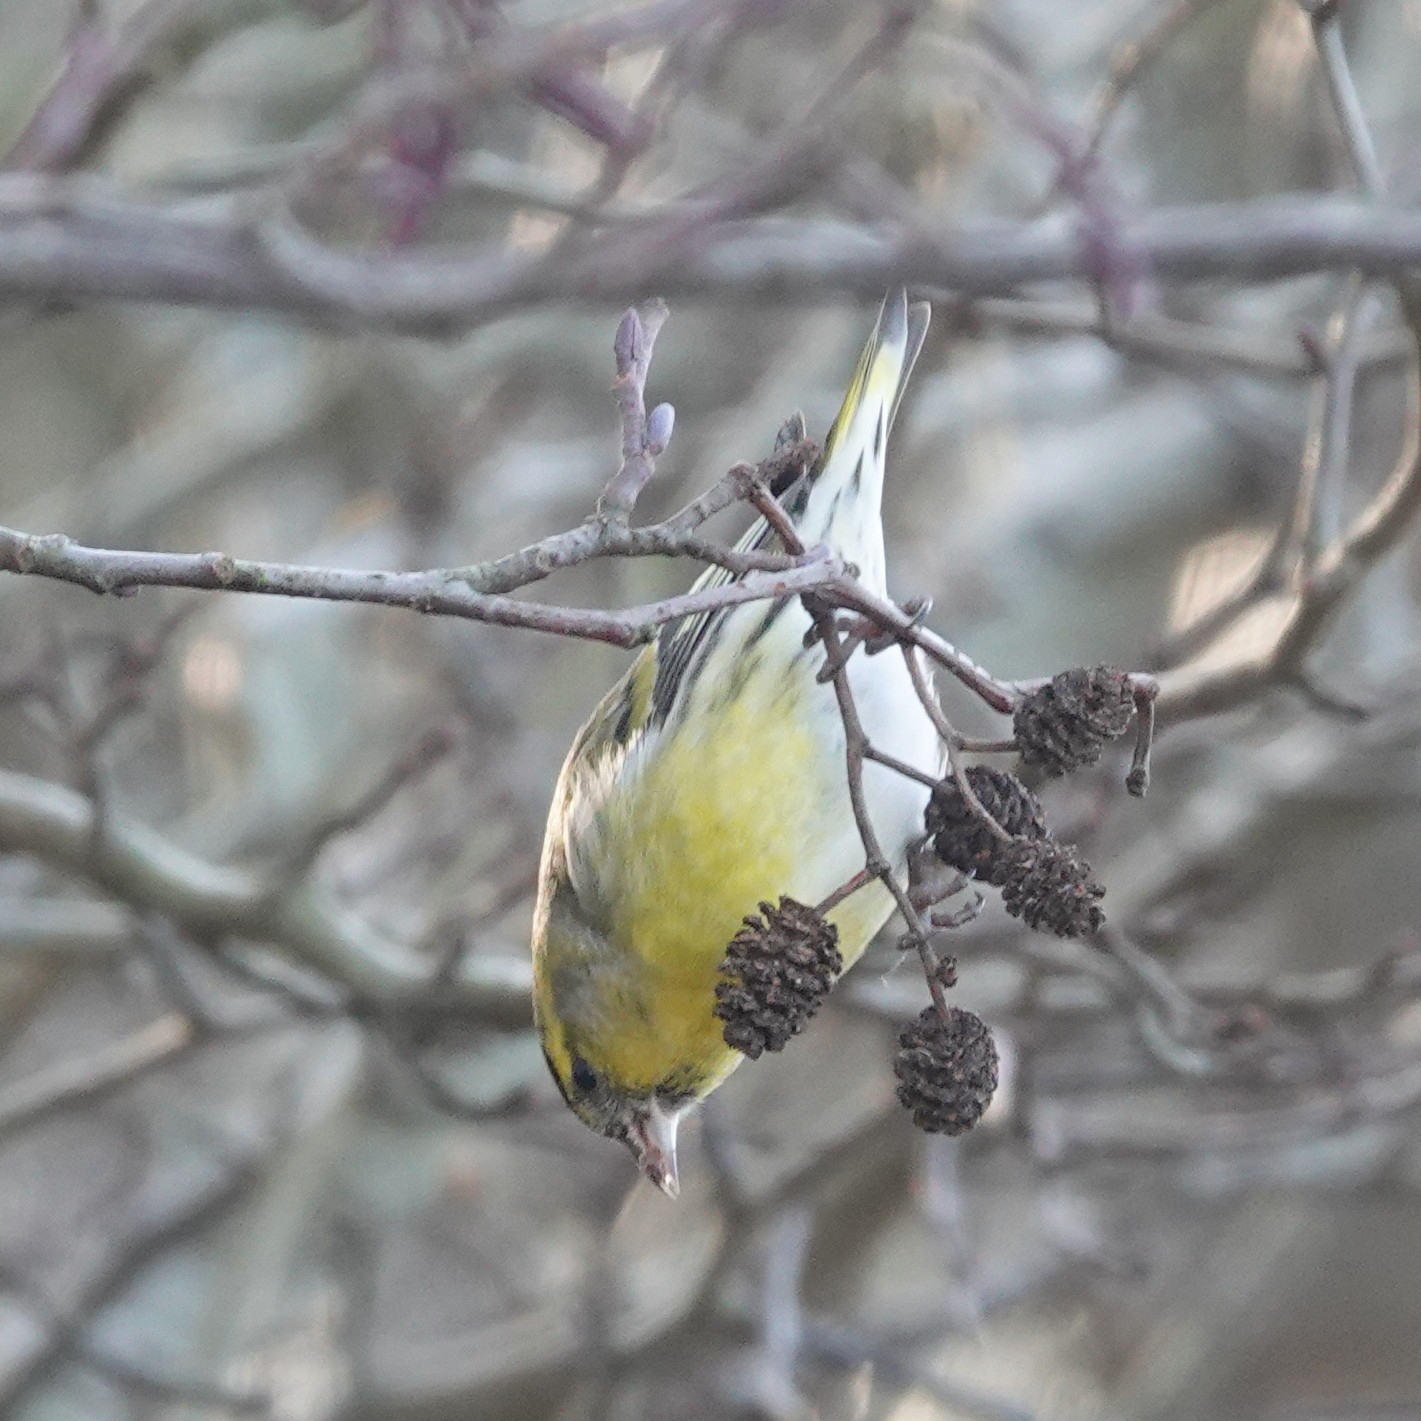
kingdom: Animalia
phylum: Chordata
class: Aves
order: Passeriformes
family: Fringillidae
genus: Spinus
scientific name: Spinus spinus
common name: Eurasian siskin
